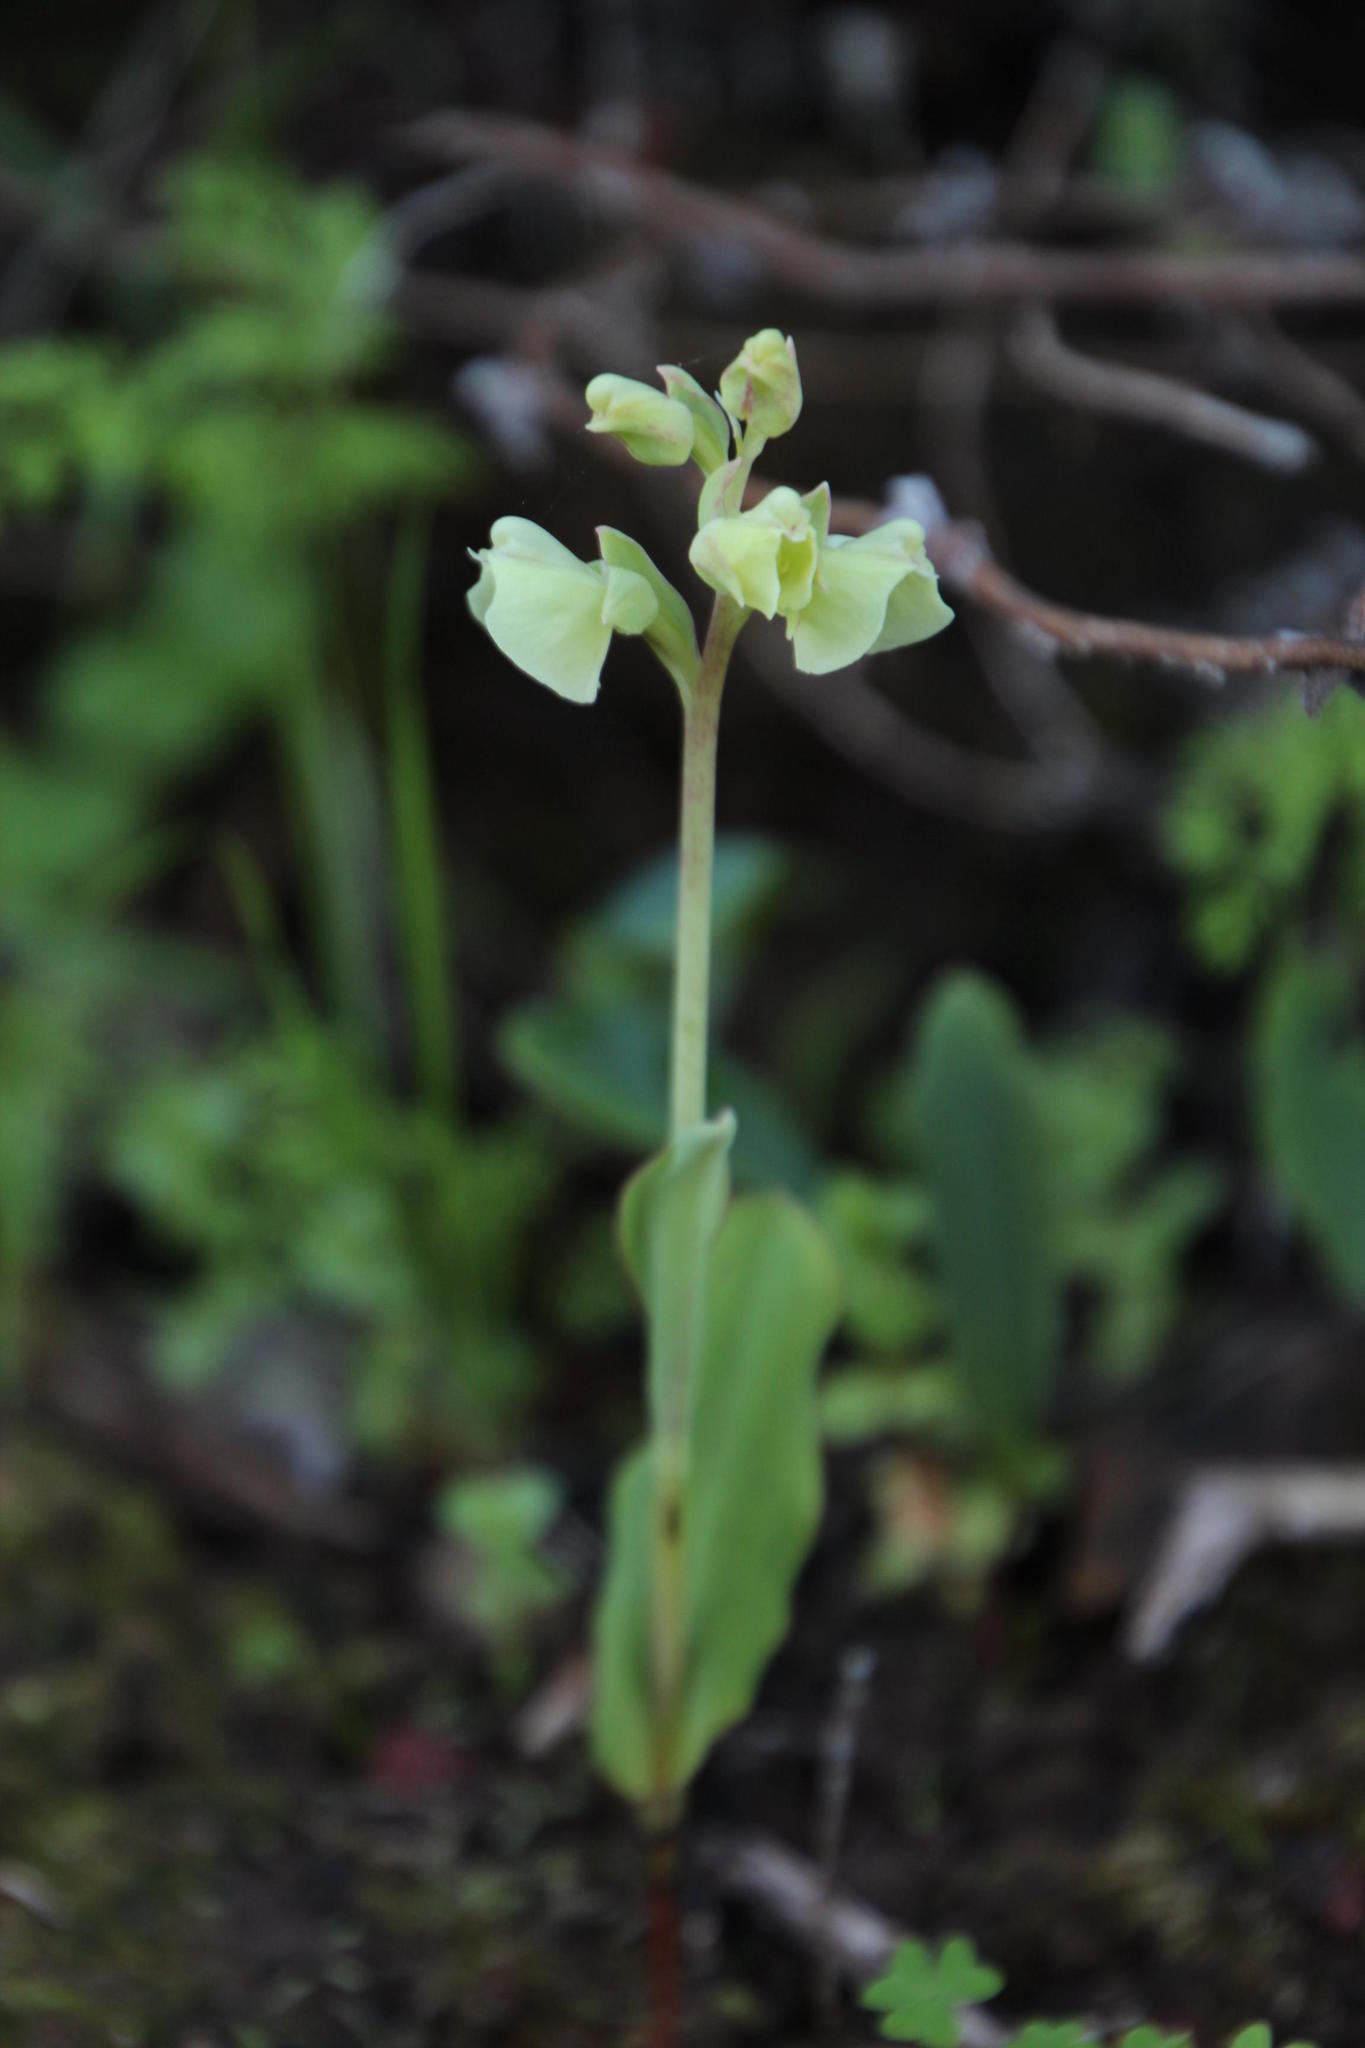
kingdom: Plantae
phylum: Tracheophyta
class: Liliopsida
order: Asparagales
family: Orchidaceae
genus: Pterygodium
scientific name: Pterygodium catholicum
